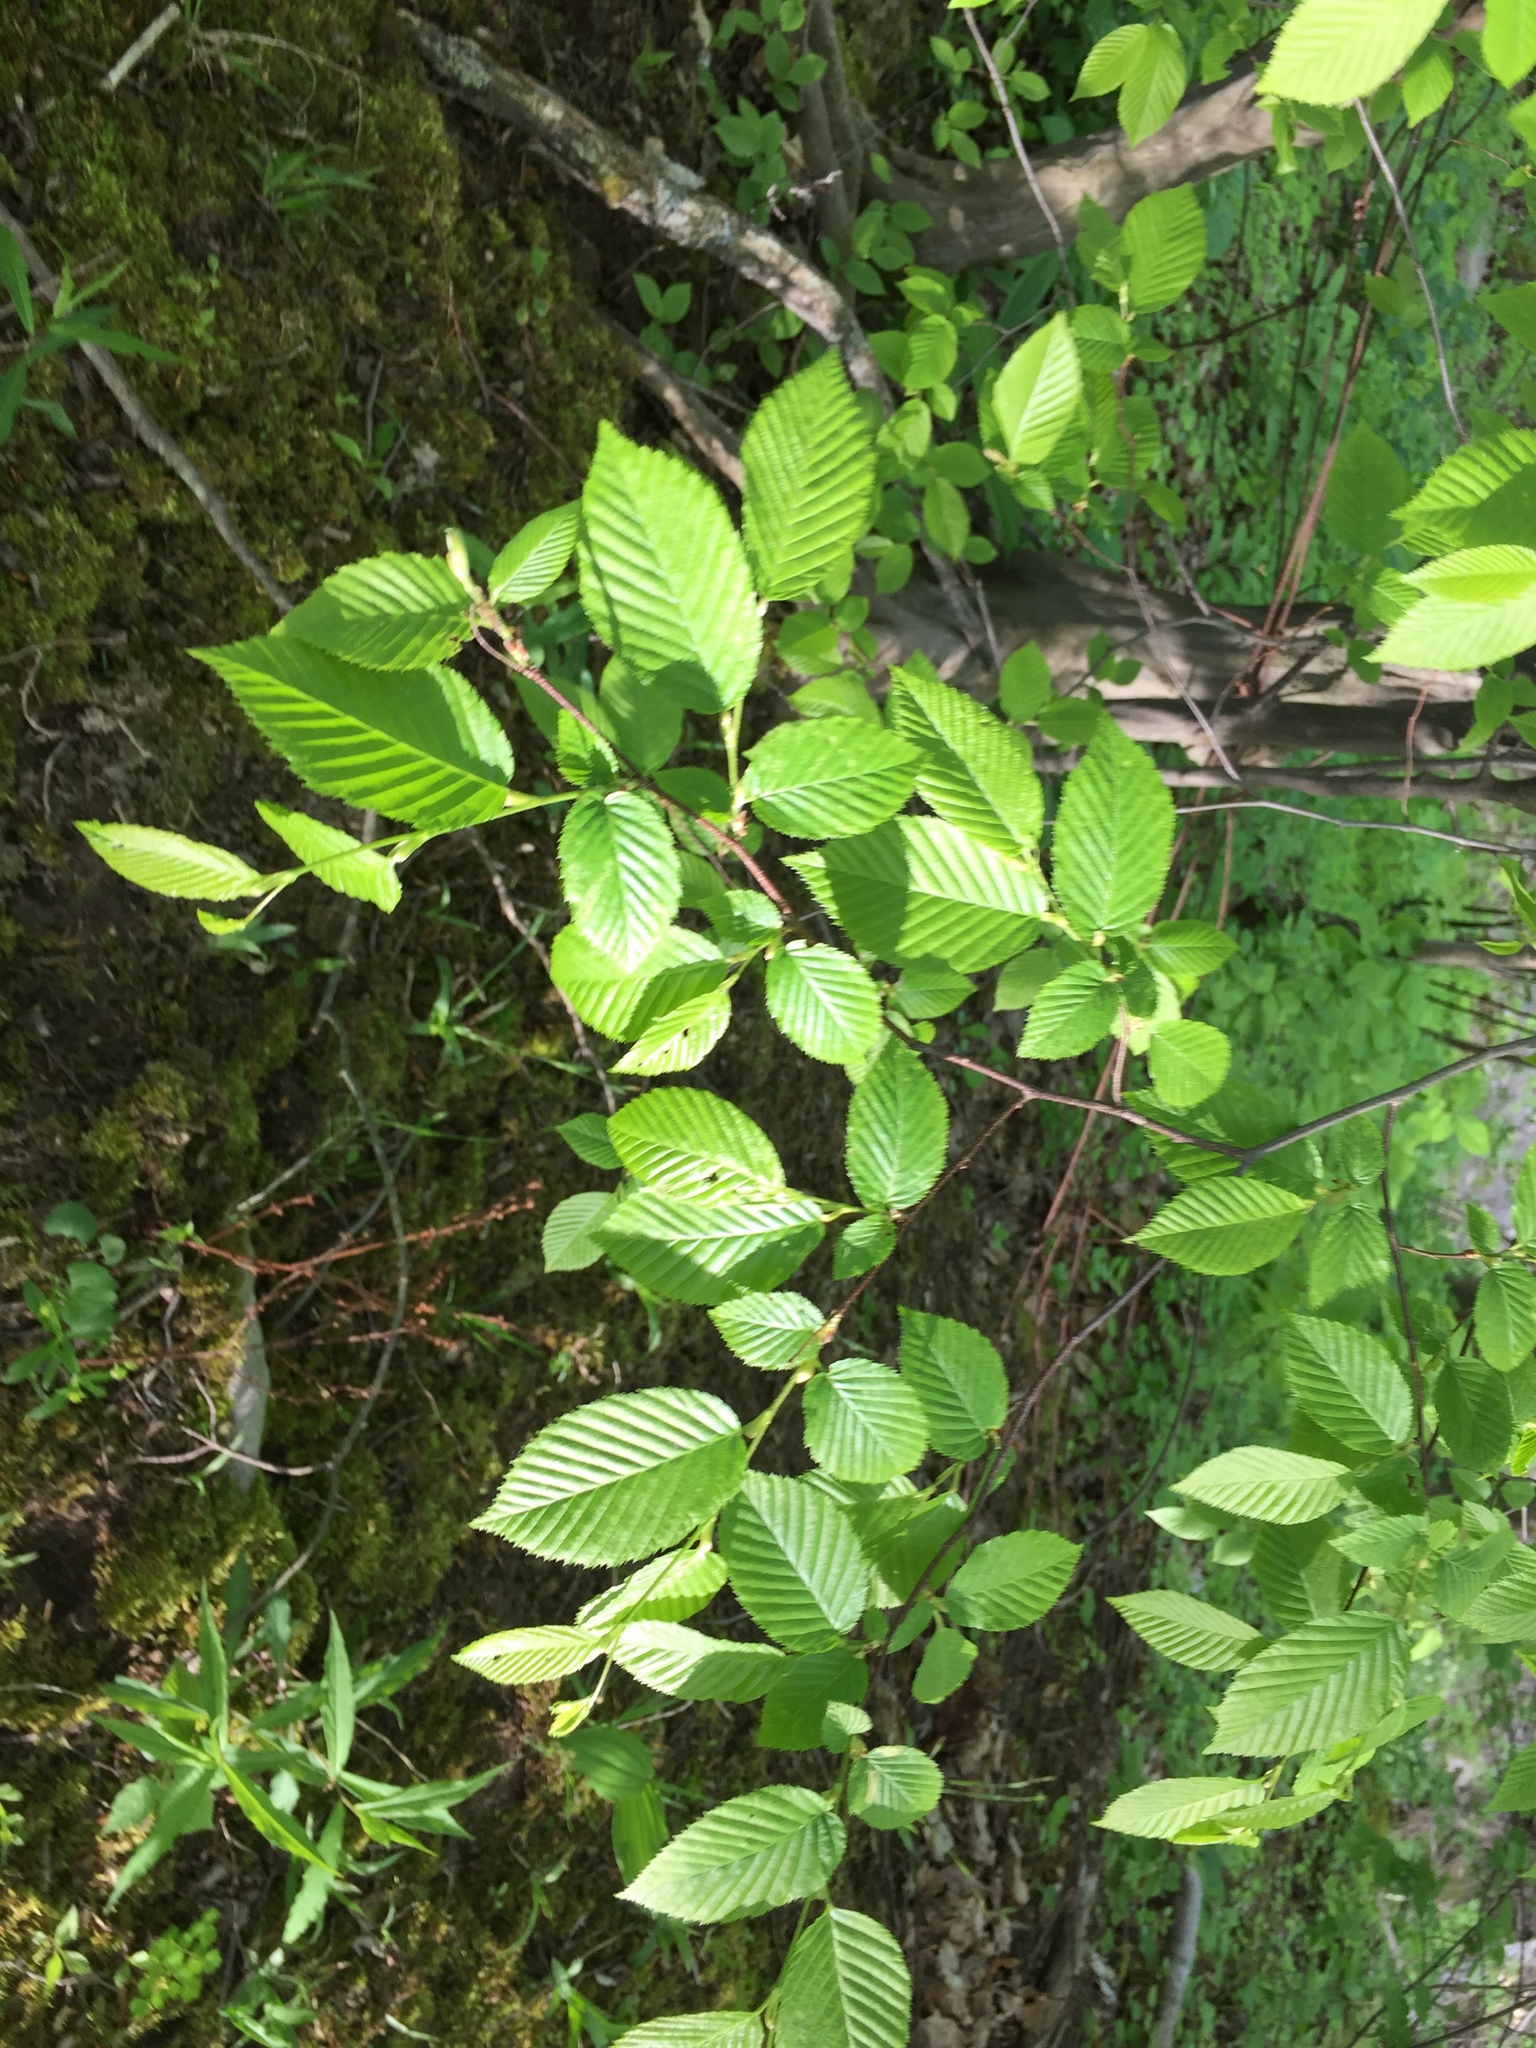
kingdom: Plantae
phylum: Tracheophyta
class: Magnoliopsida
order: Fagales
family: Betulaceae
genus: Carpinus
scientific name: Carpinus caroliniana
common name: American hornbeam
